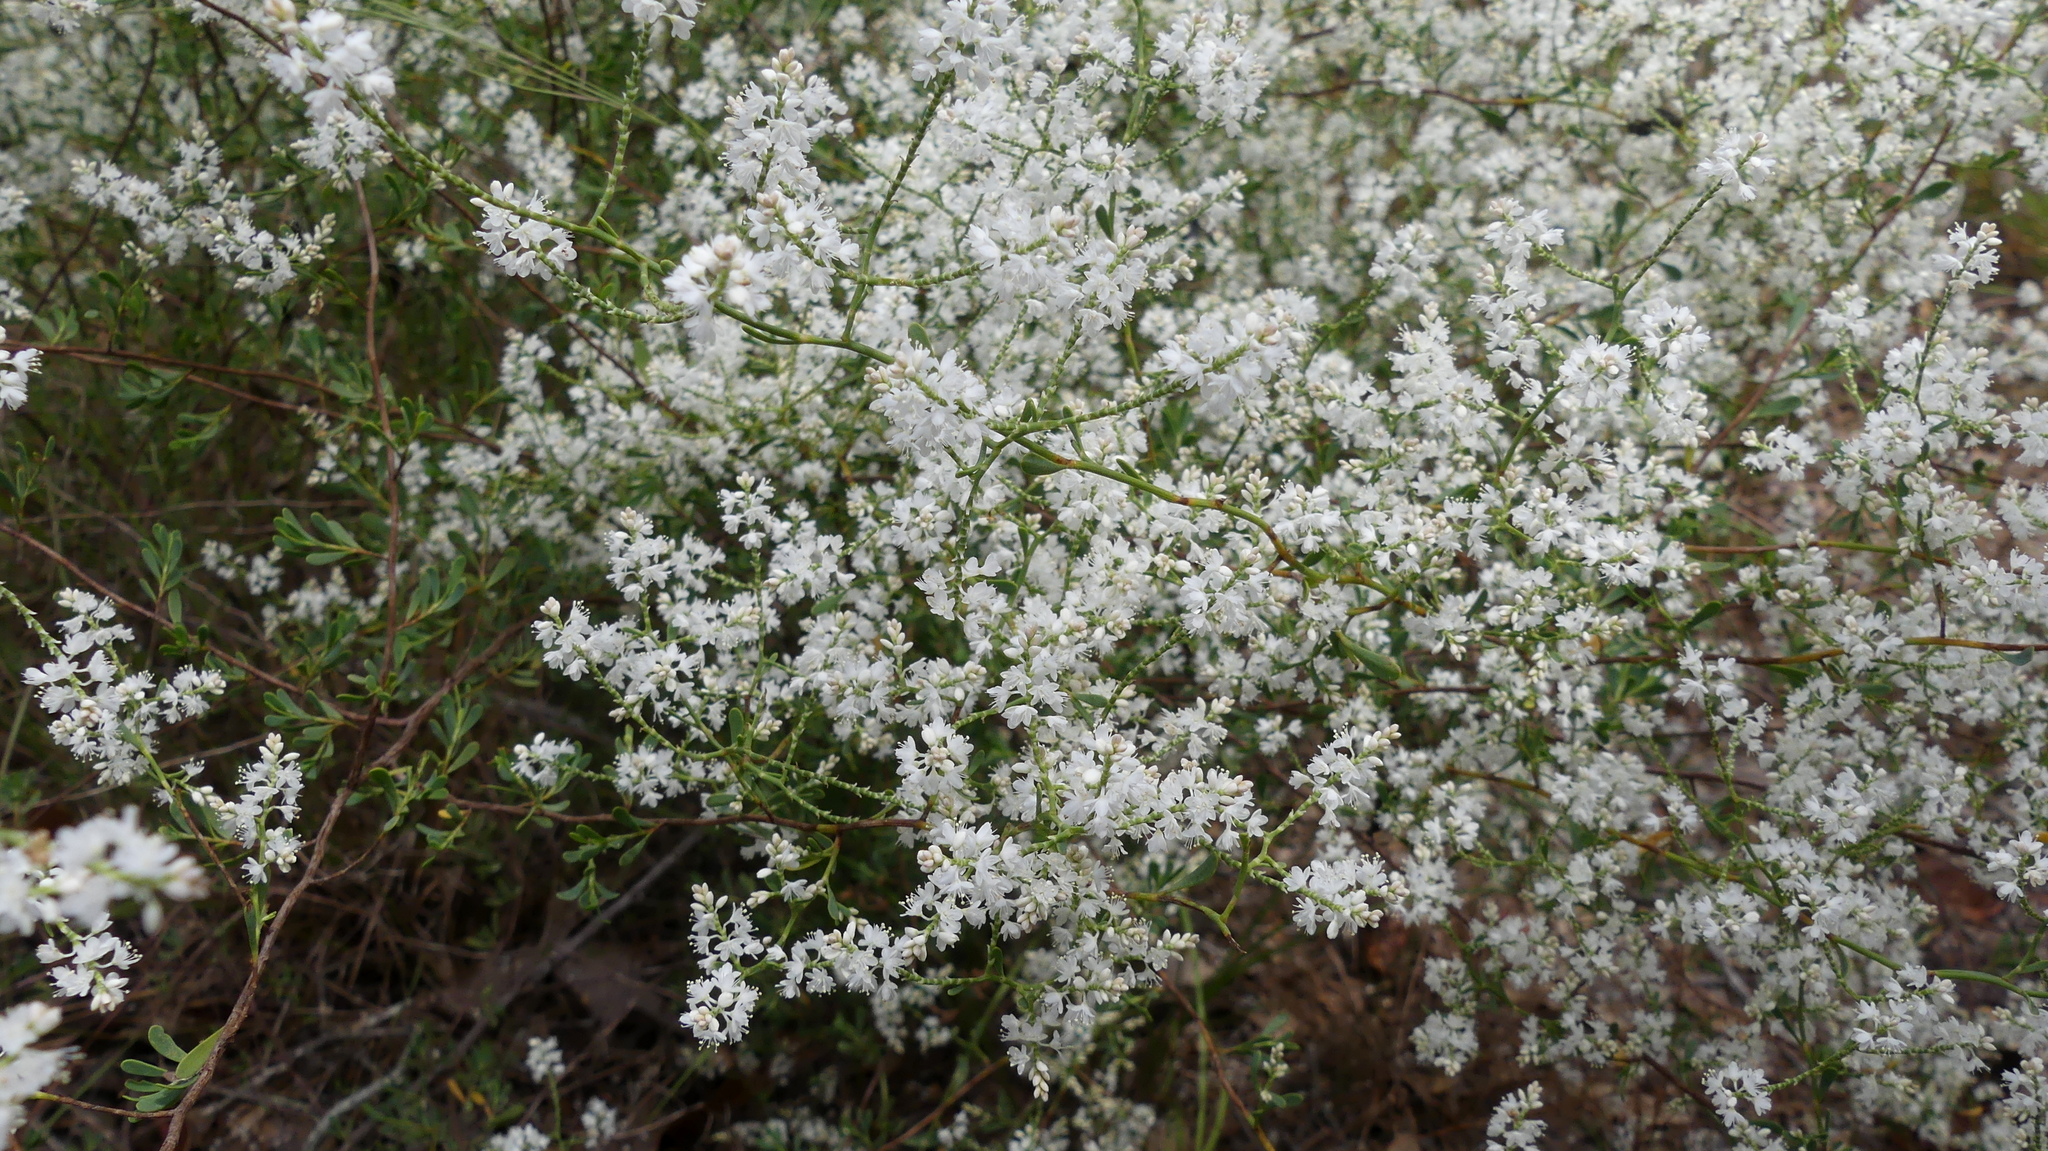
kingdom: Plantae
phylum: Tracheophyta
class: Magnoliopsida
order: Caryophyllales
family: Polygonaceae
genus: Polygonella
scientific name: Polygonella polygama
